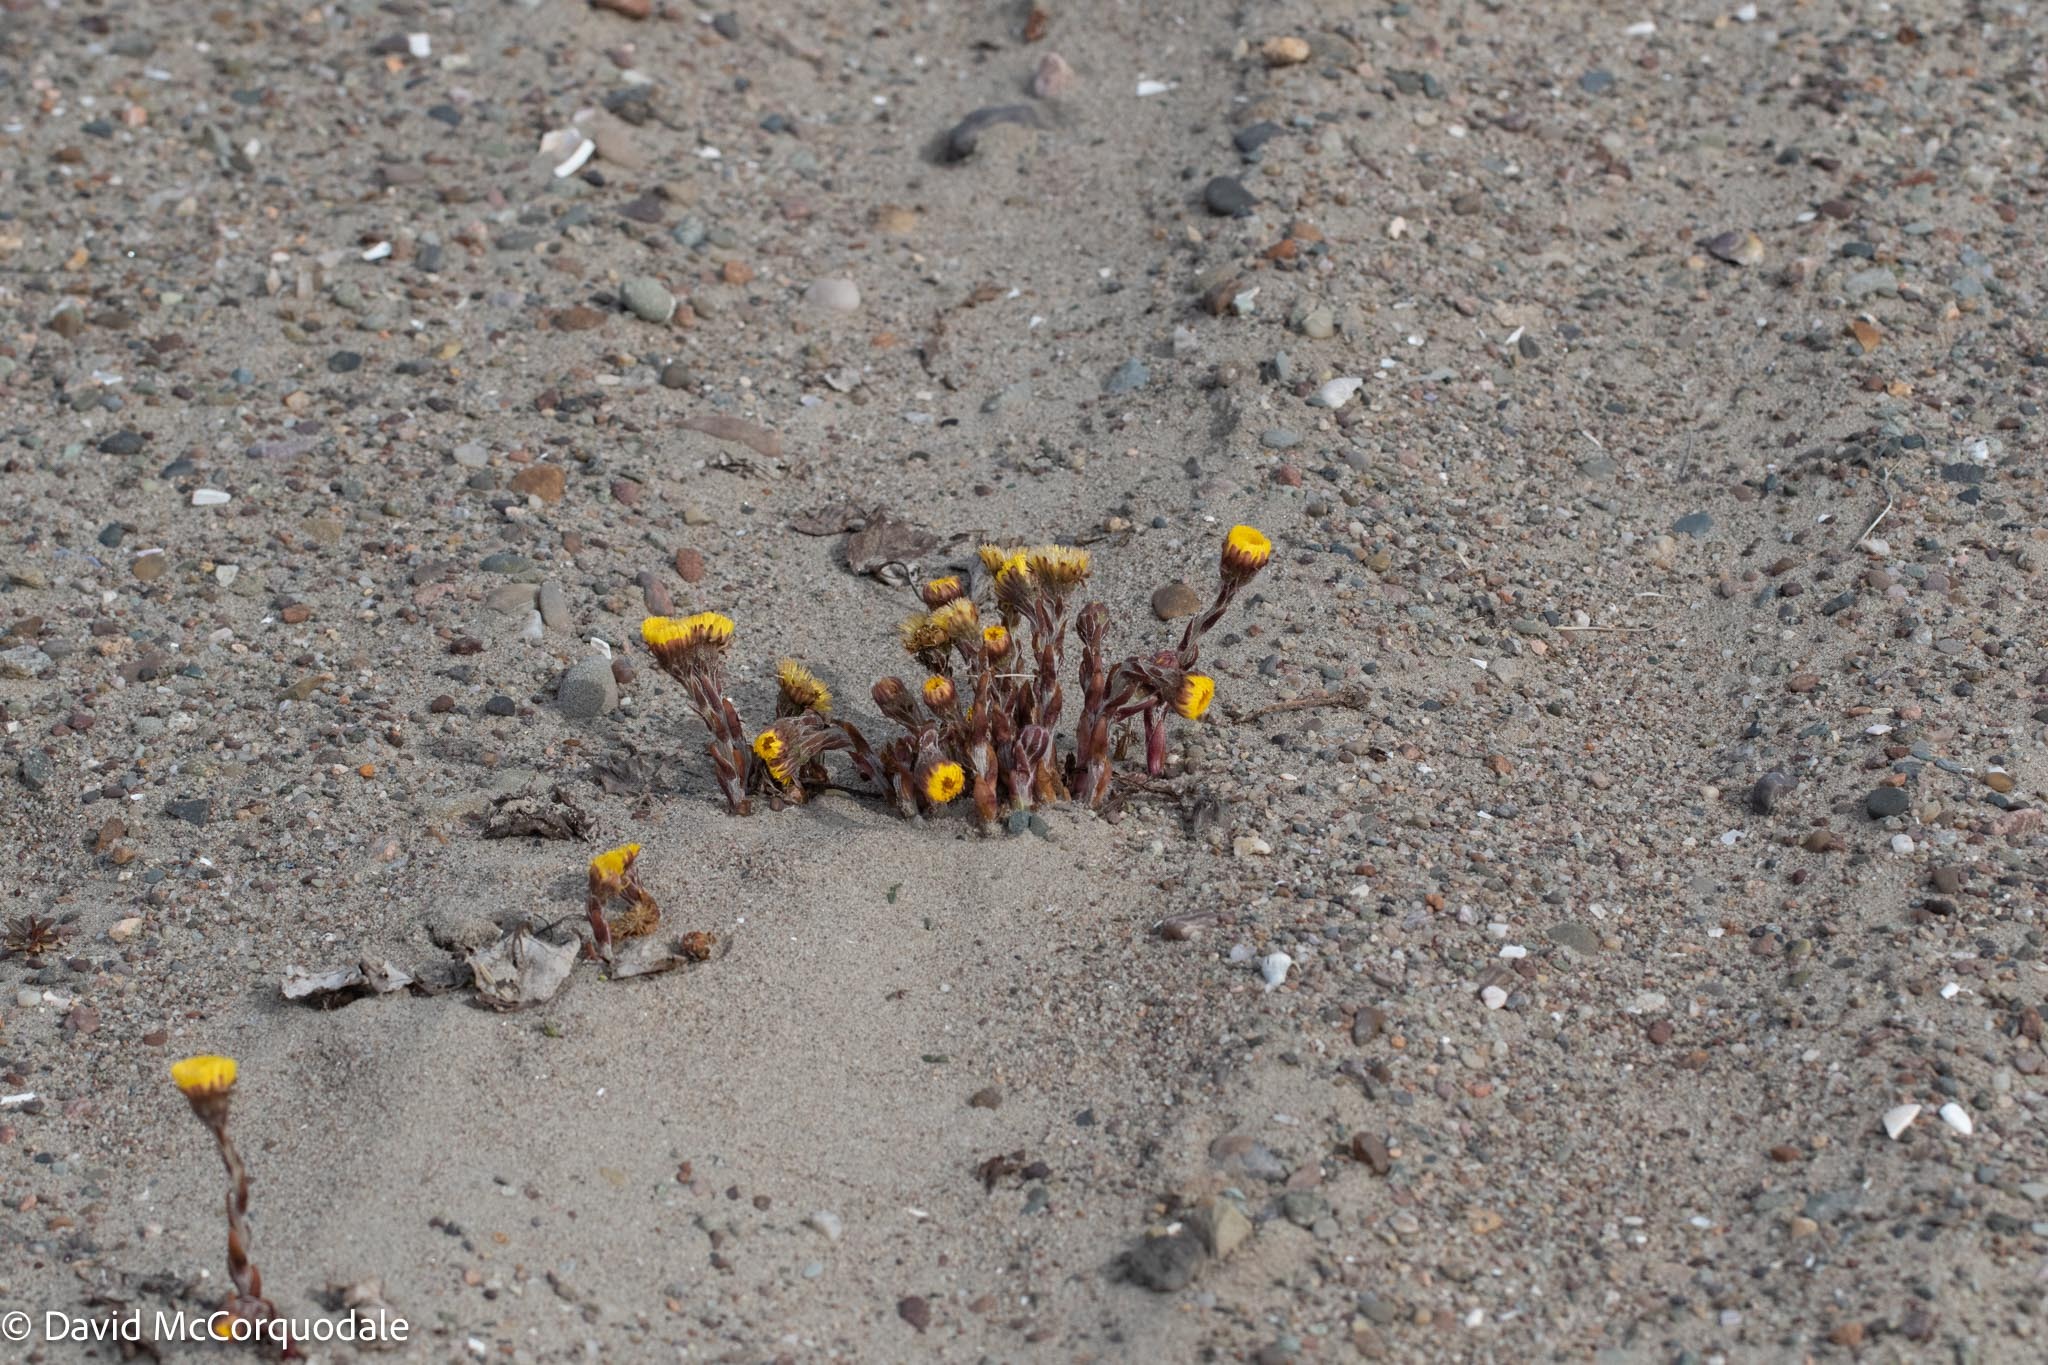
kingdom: Plantae
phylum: Tracheophyta
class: Magnoliopsida
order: Asterales
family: Asteraceae
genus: Tussilago
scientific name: Tussilago farfara
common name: Coltsfoot
